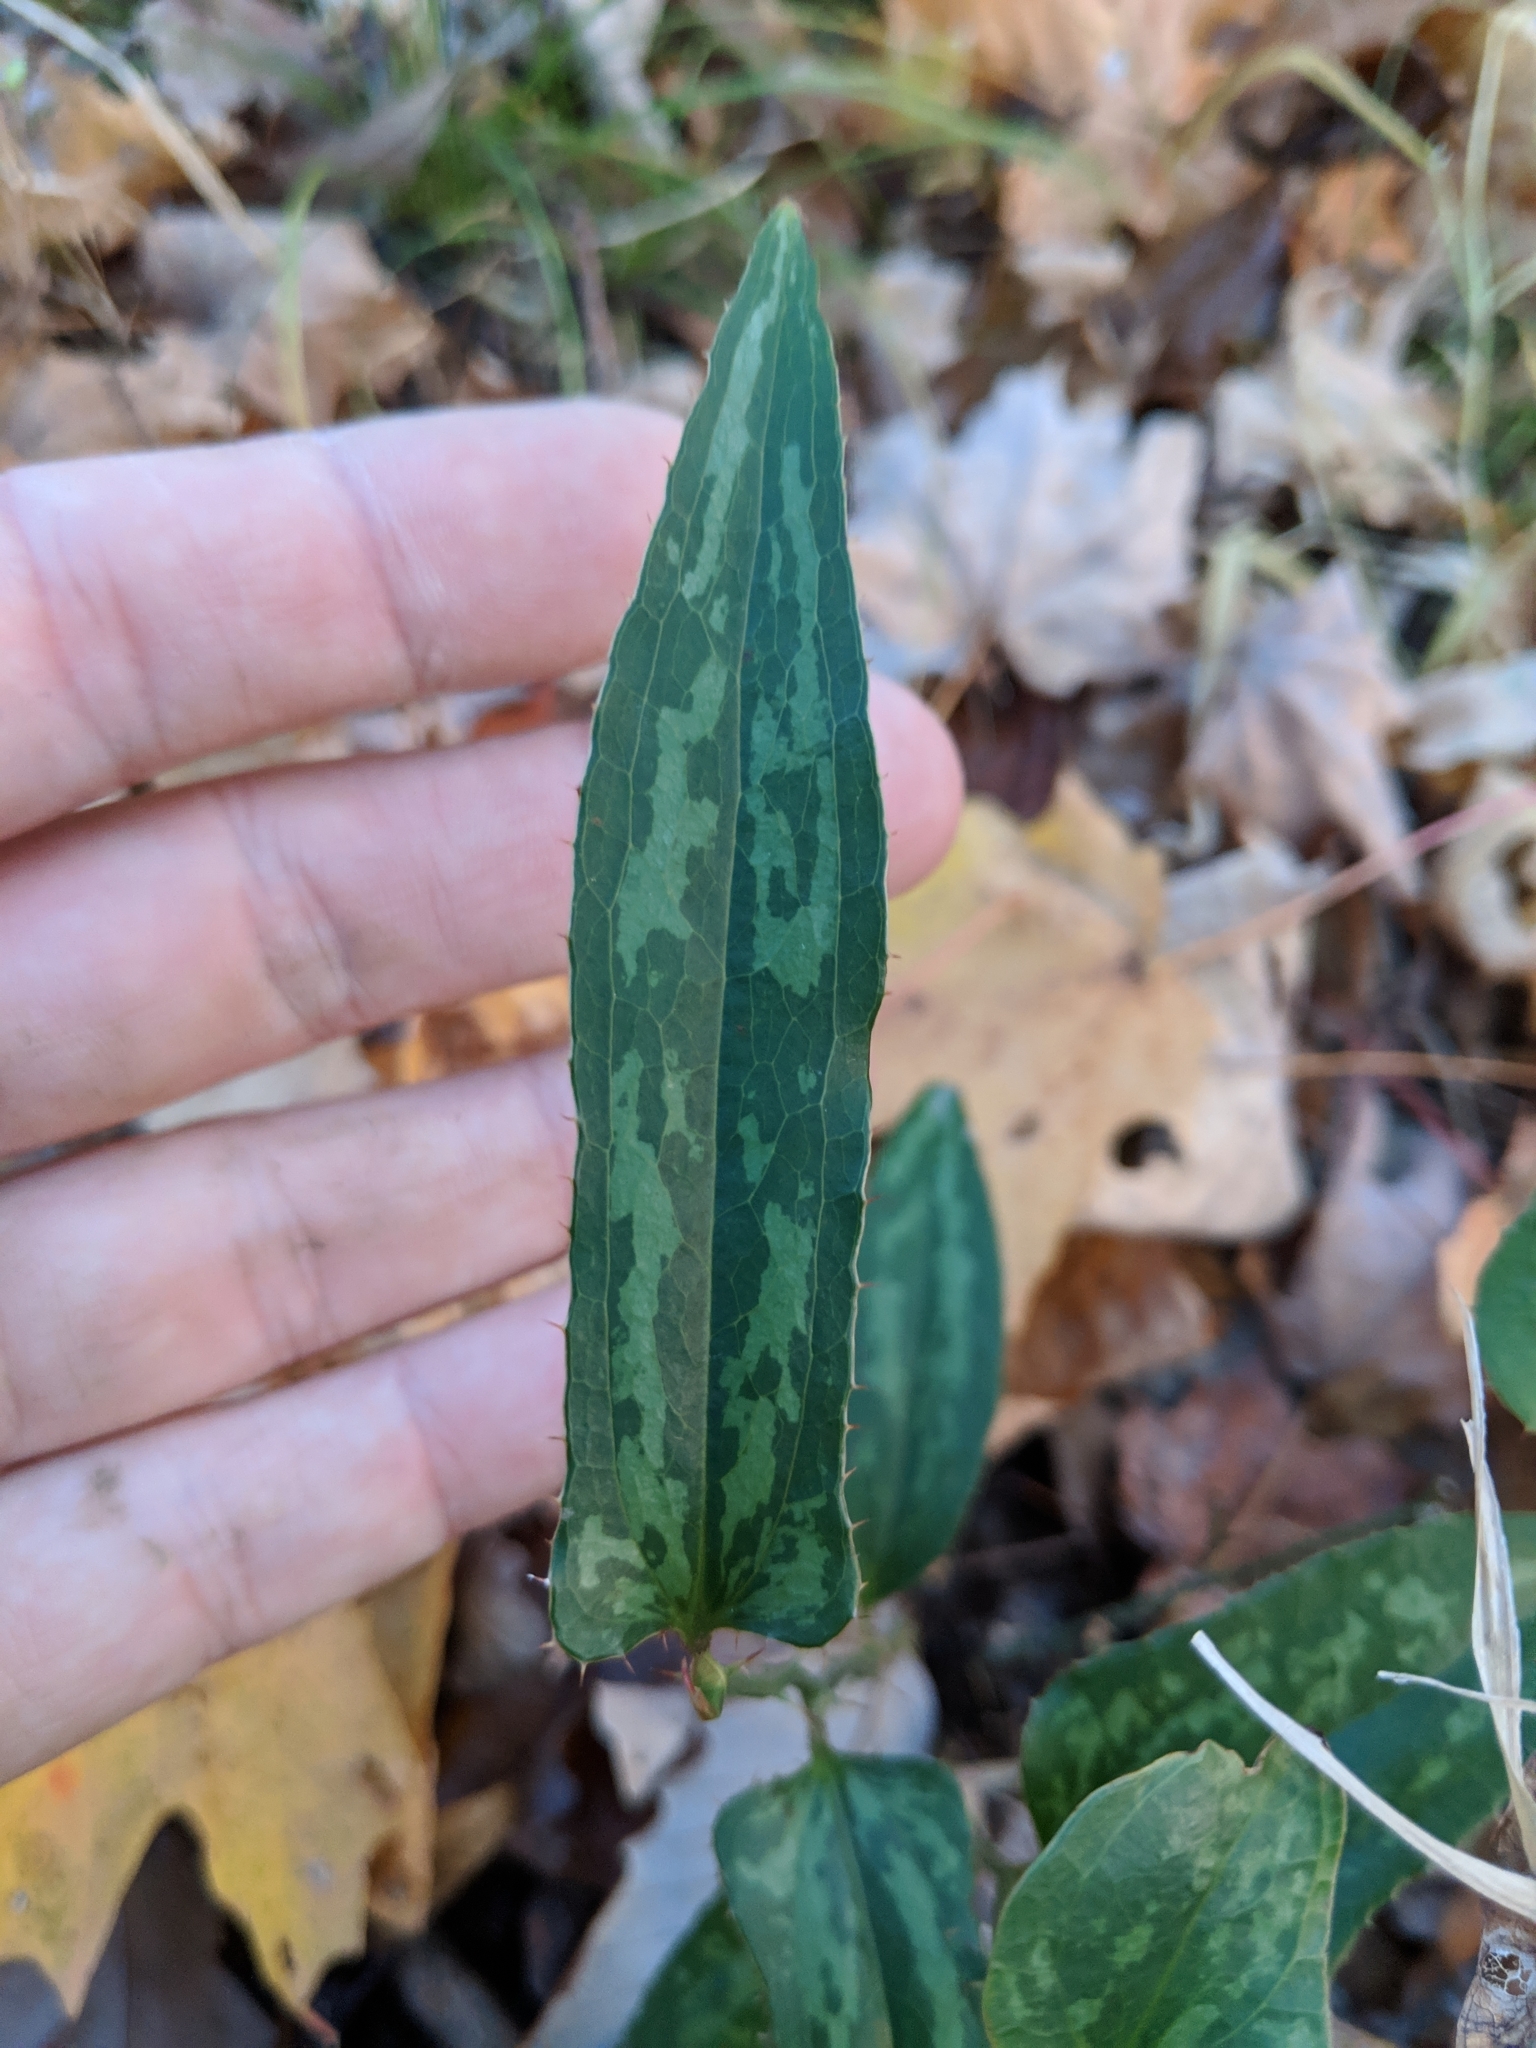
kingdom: Plantae
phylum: Tracheophyta
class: Liliopsida
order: Liliales
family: Smilacaceae
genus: Smilax
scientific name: Smilax bona-nox
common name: Catbrier
